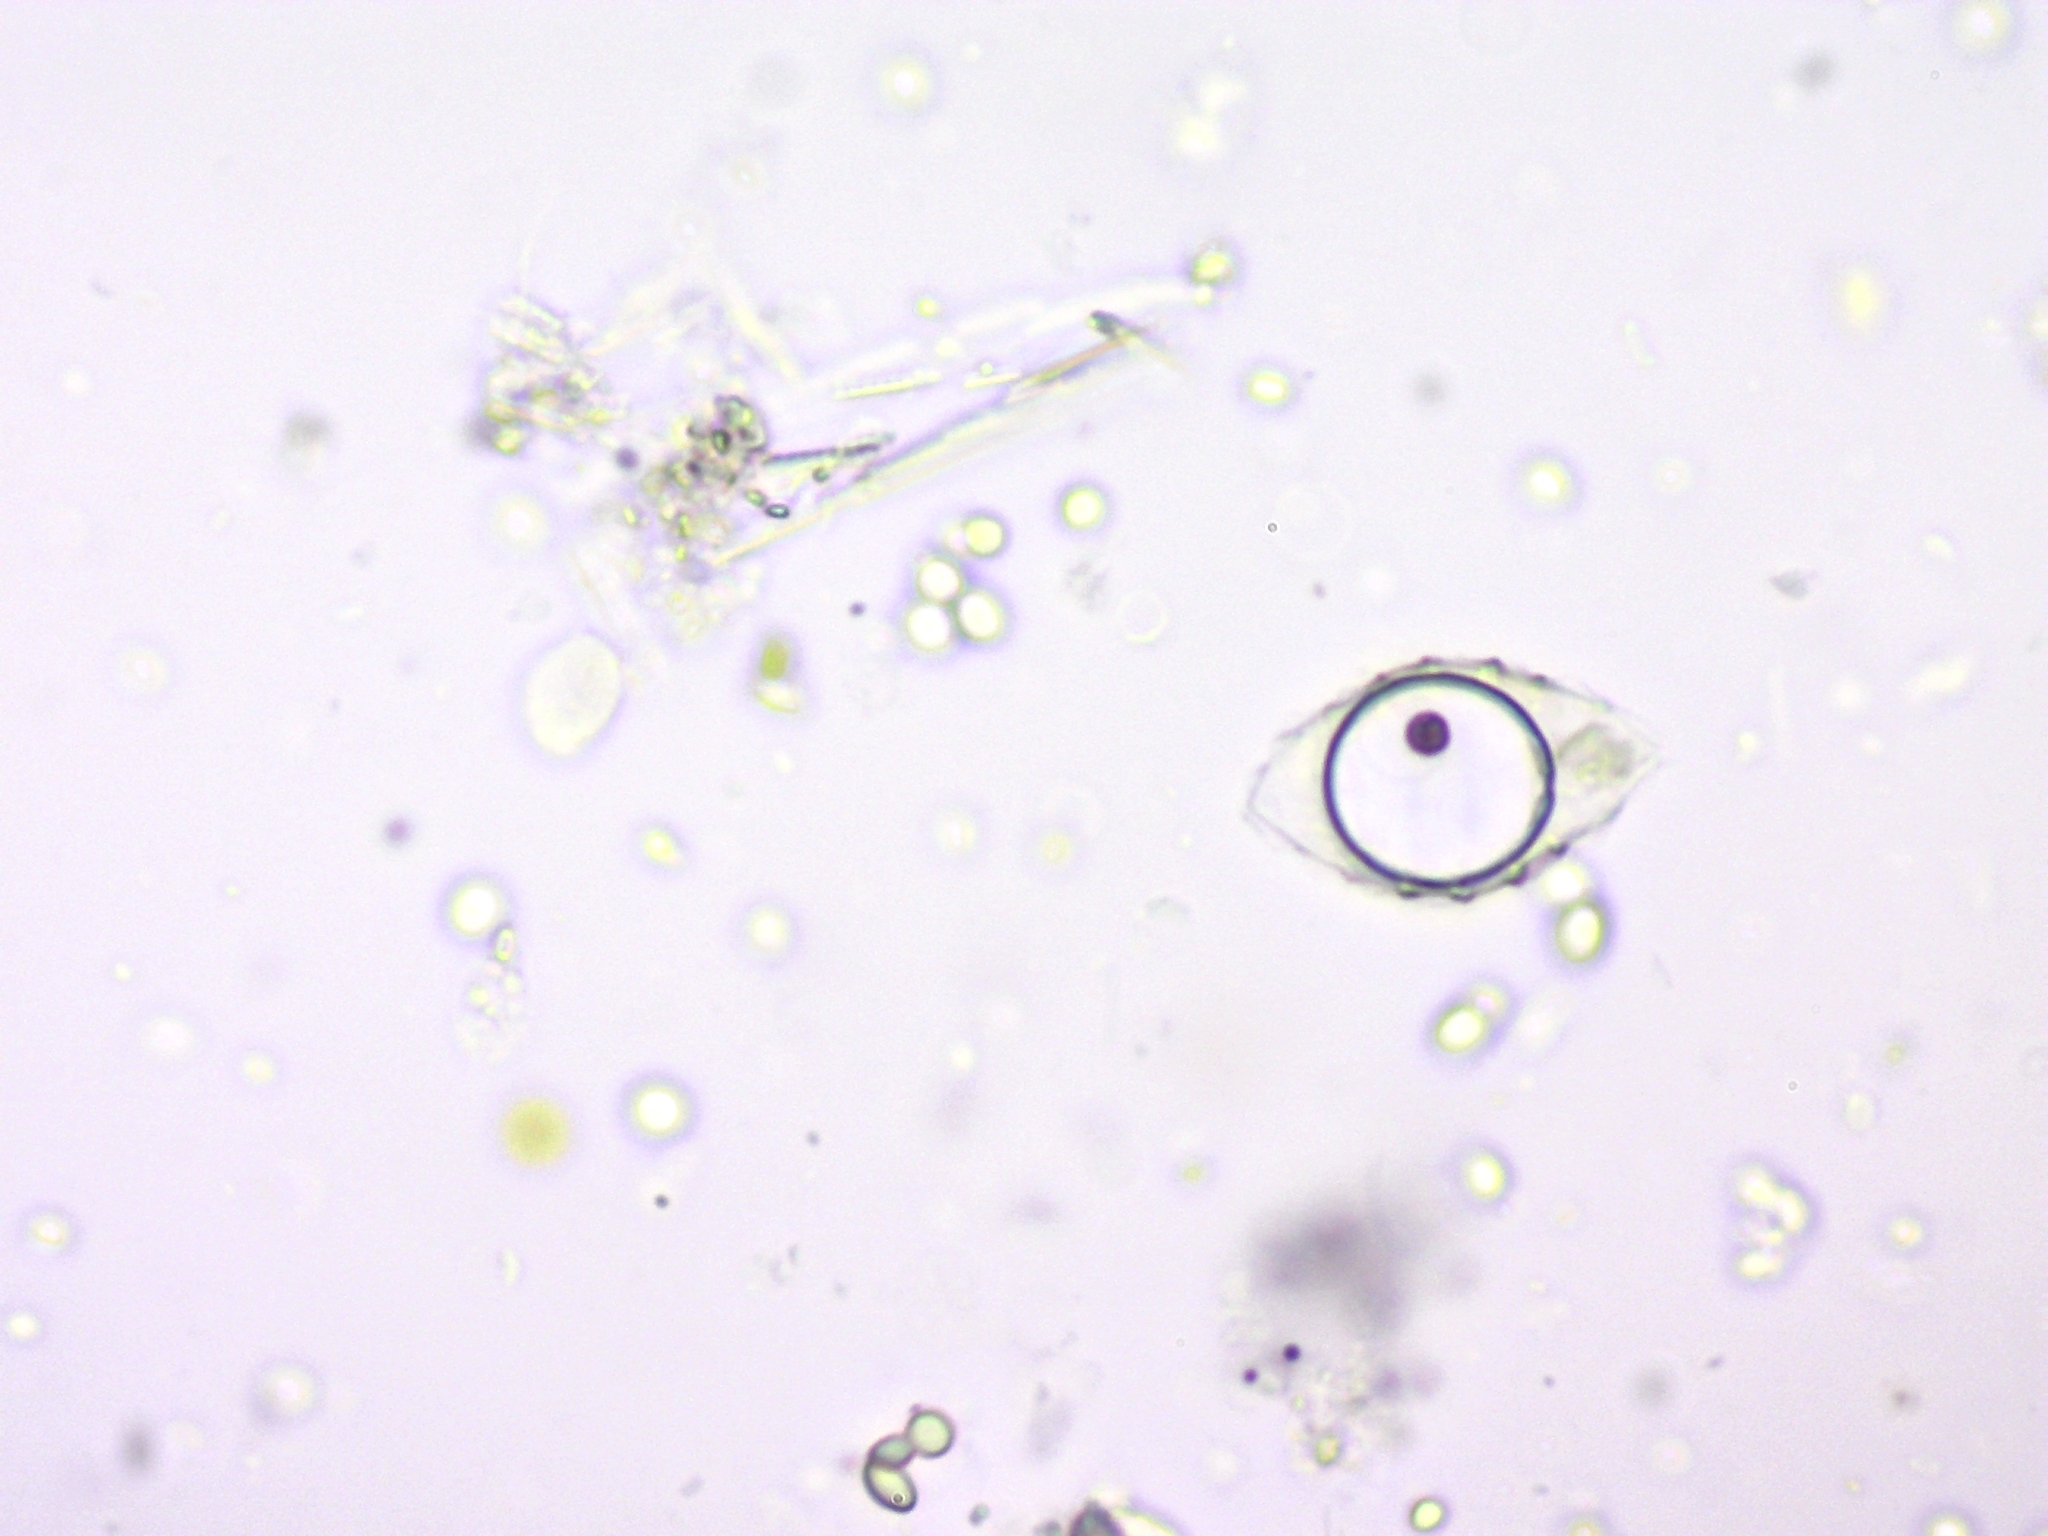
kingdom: Chromista
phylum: Ochrophyta
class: Chrysophyceae
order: Synurales
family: Mallomonadaceae
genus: Mallomonas
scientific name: Mallomonas
